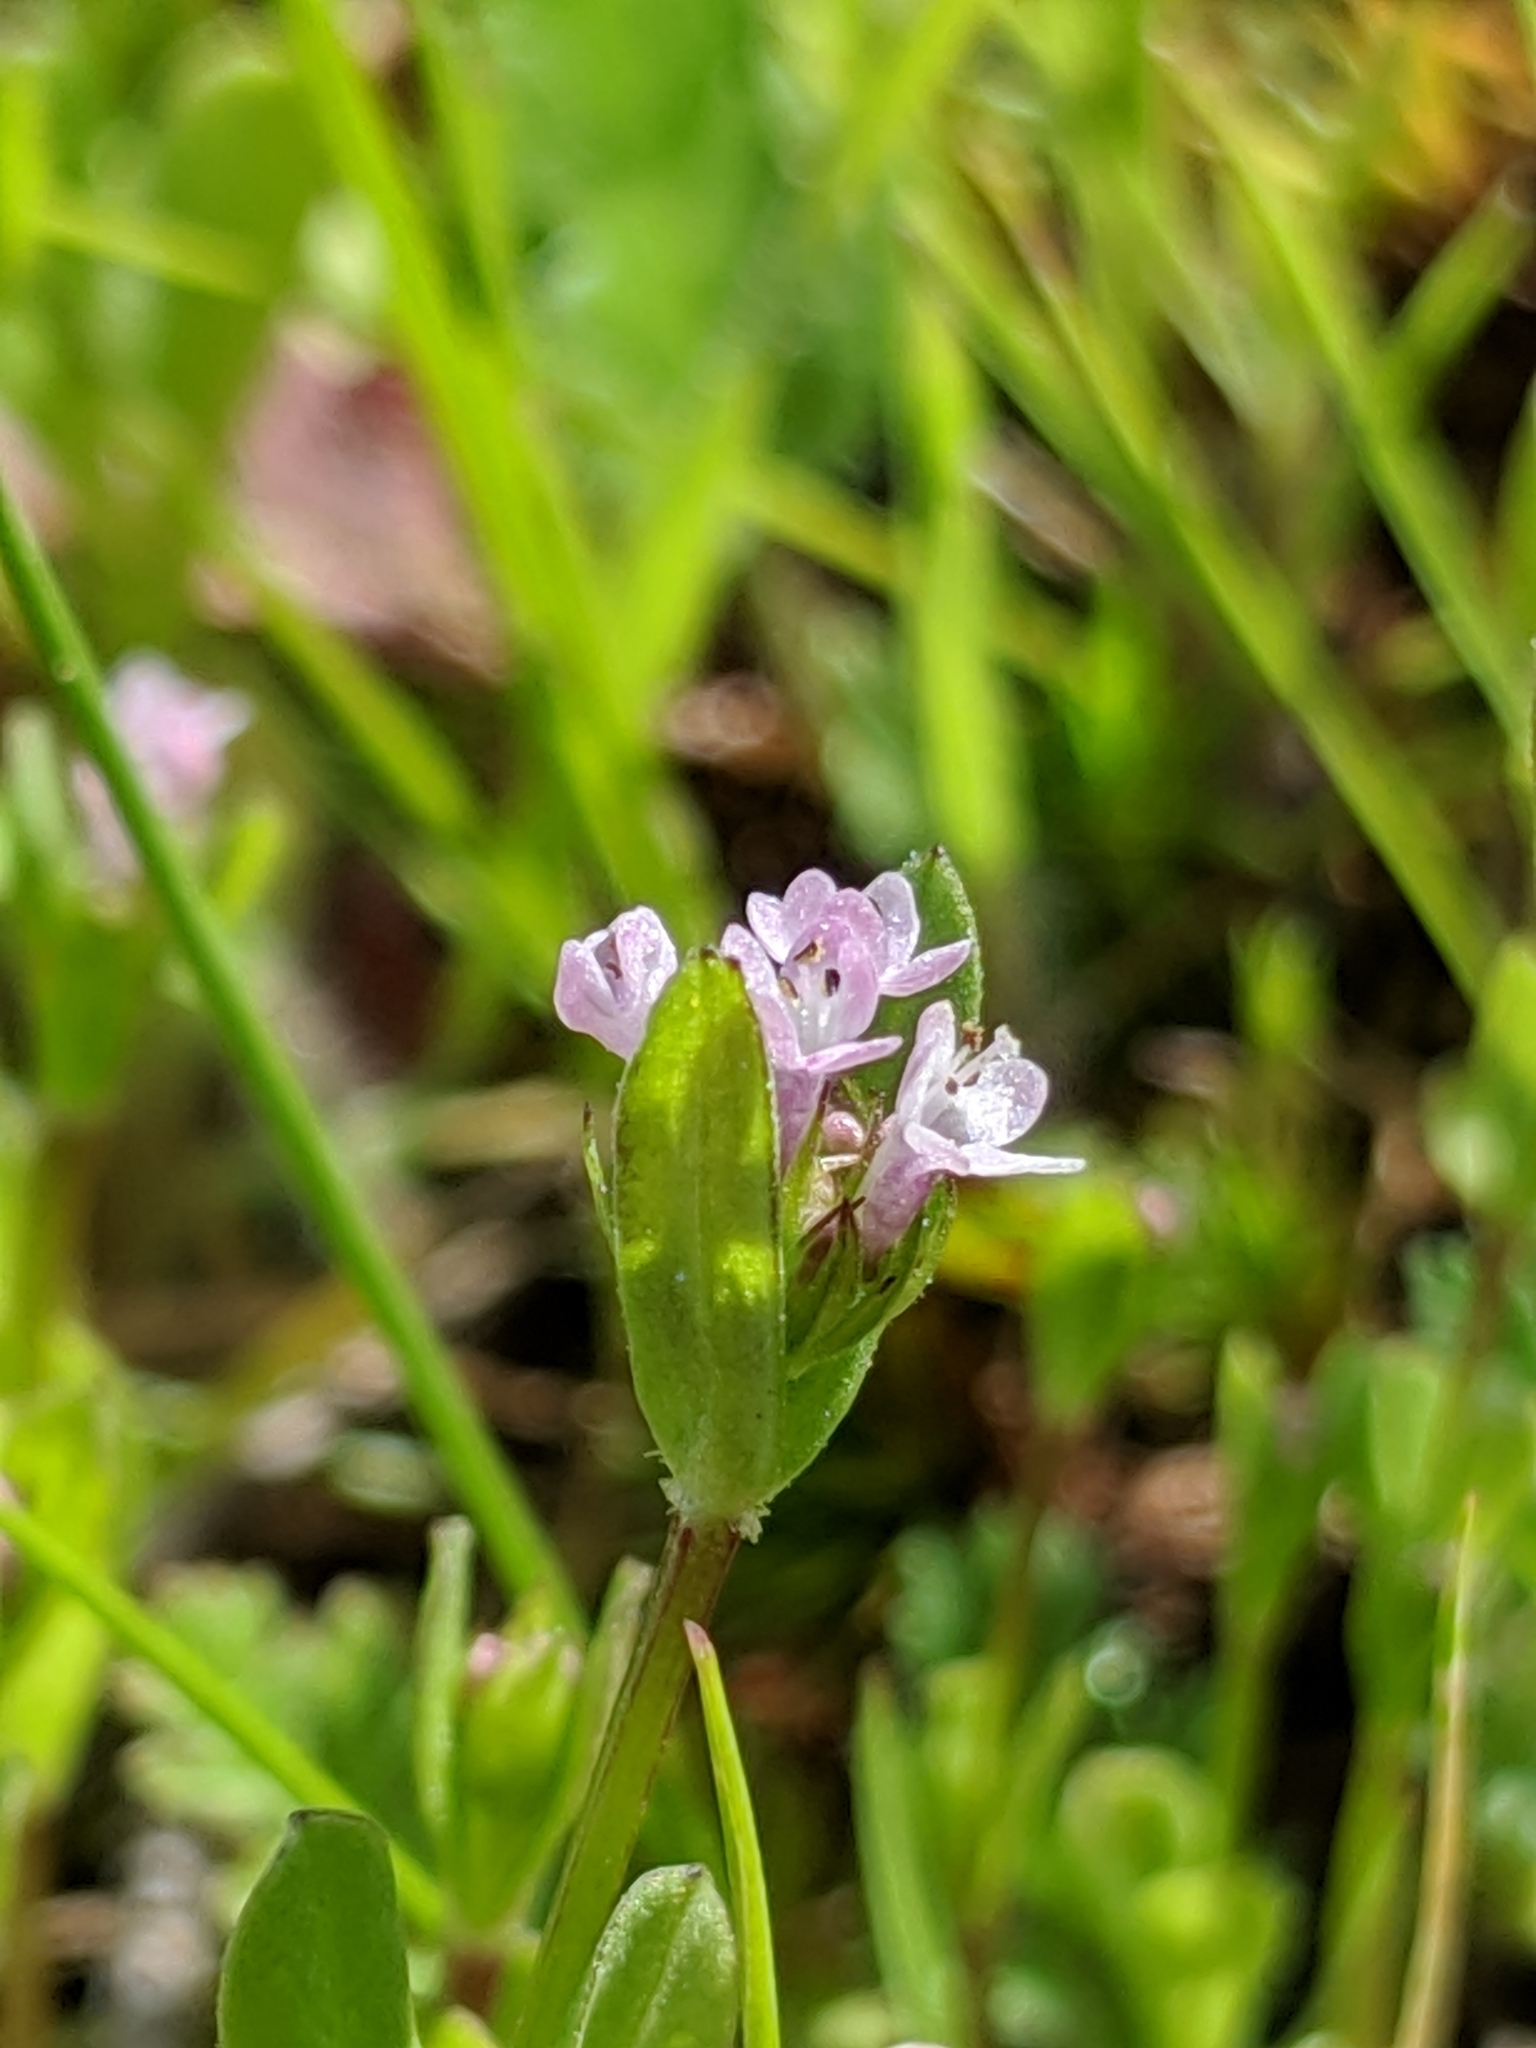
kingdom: Plantae
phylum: Tracheophyta
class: Magnoliopsida
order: Dipsacales
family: Caprifoliaceae
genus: Plectritis
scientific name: Plectritis congesta
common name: Pink plectritis
